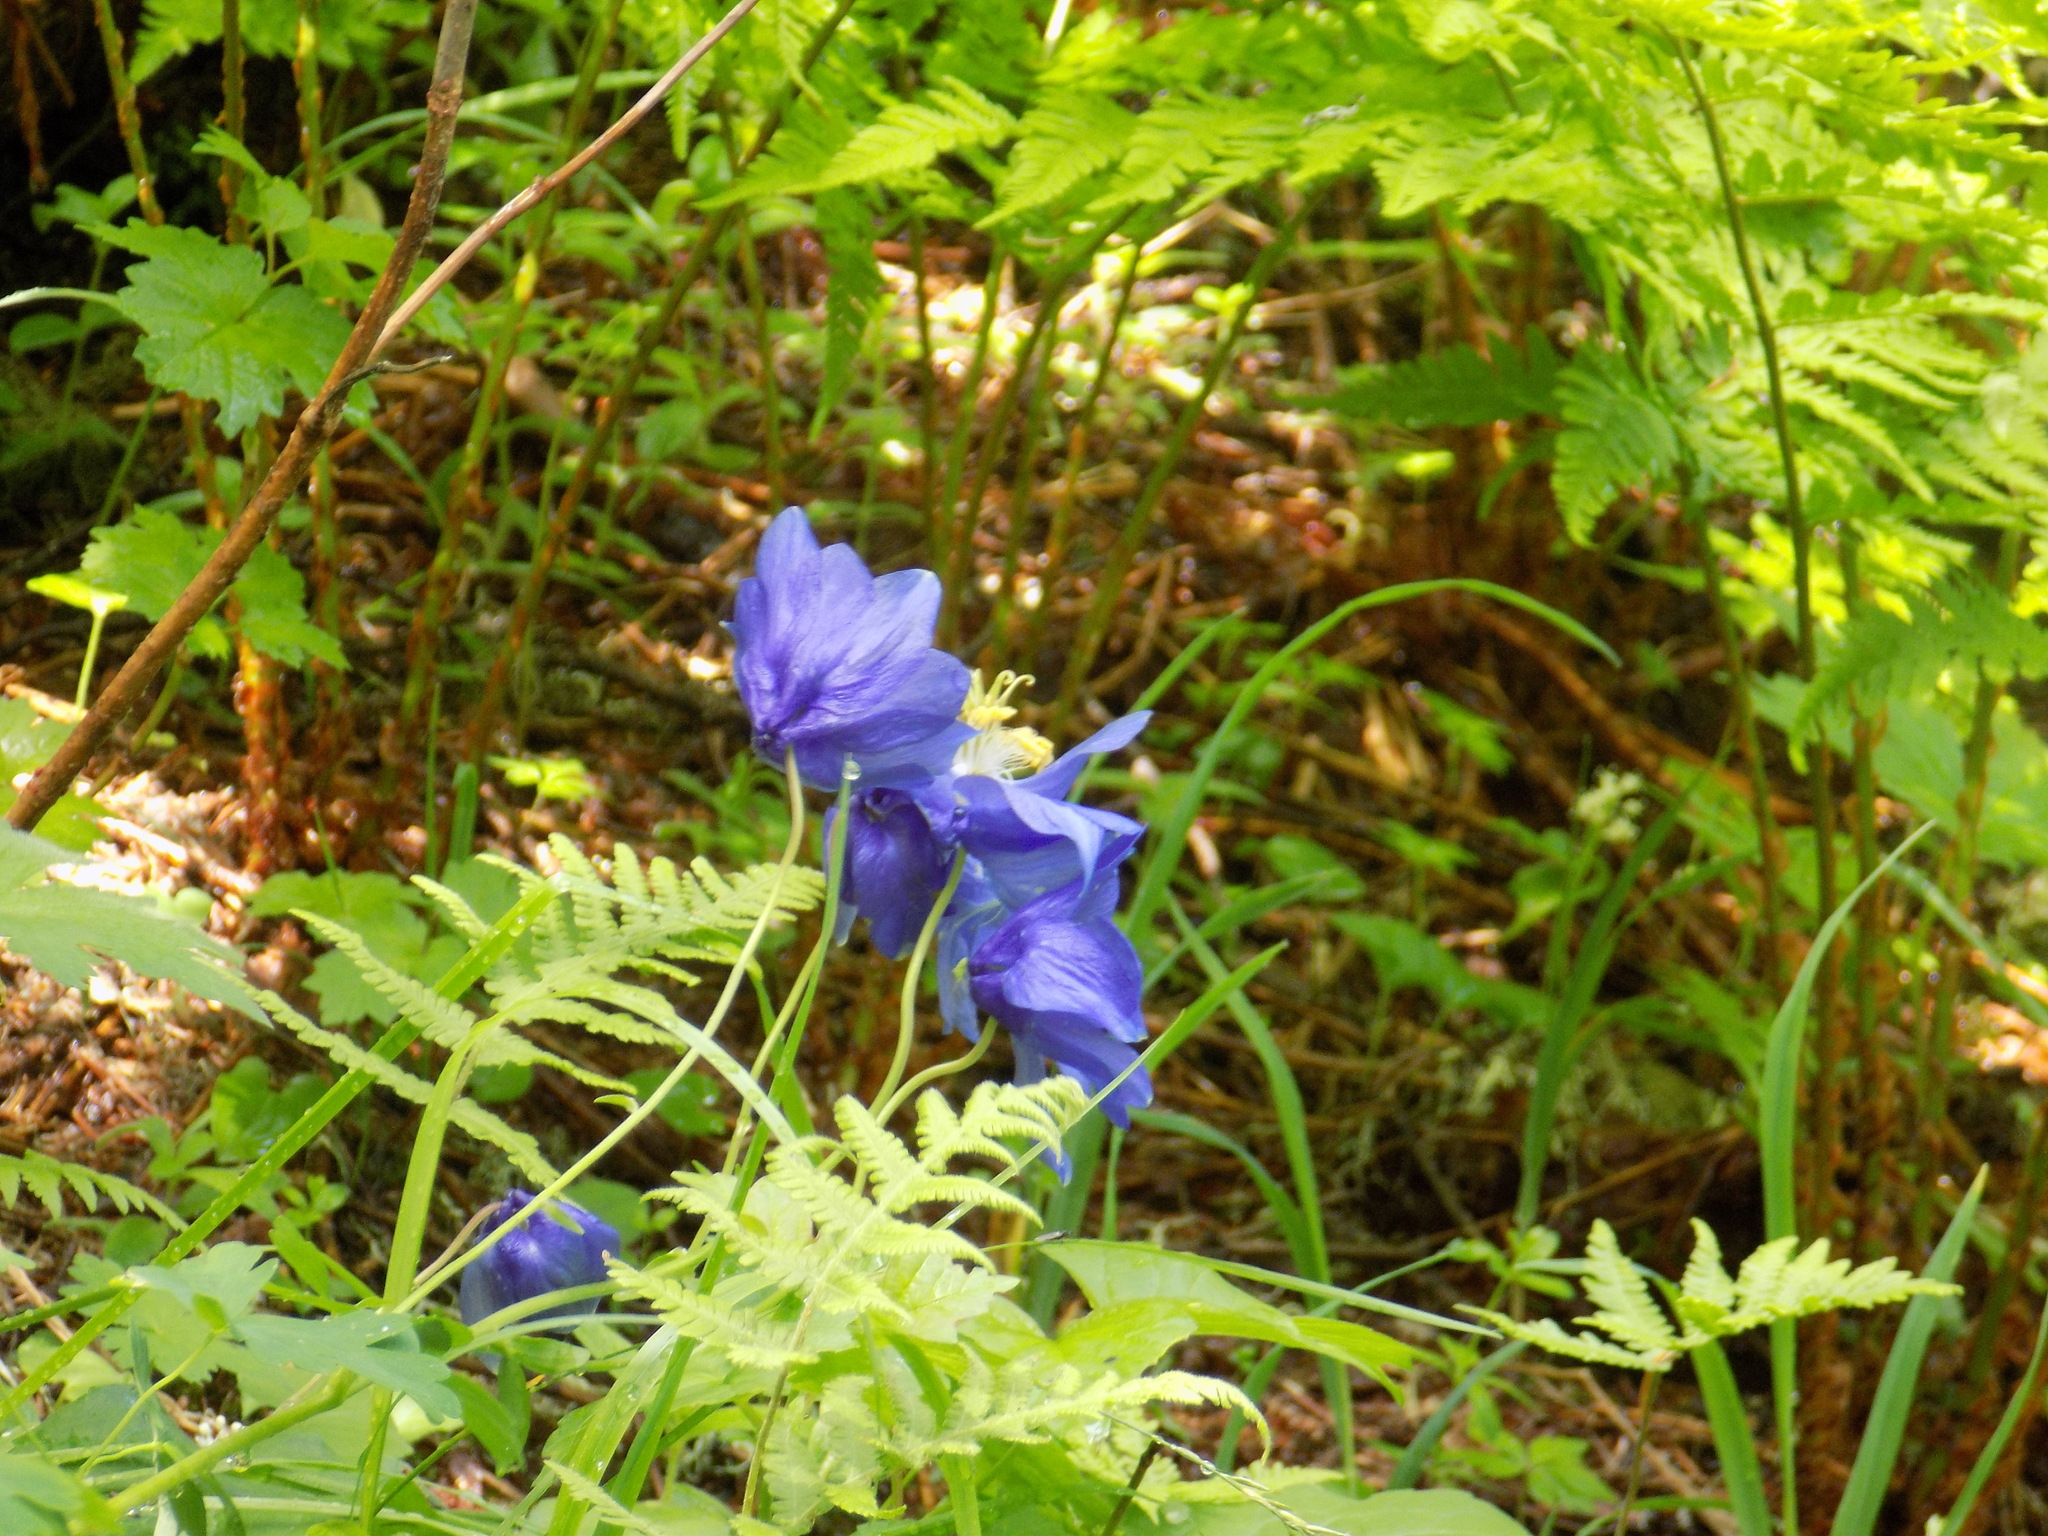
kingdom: Plantae
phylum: Tracheophyta
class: Magnoliopsida
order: Ranunculales
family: Ranunculaceae
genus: Aquilegia
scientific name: Aquilegia glandulosa
